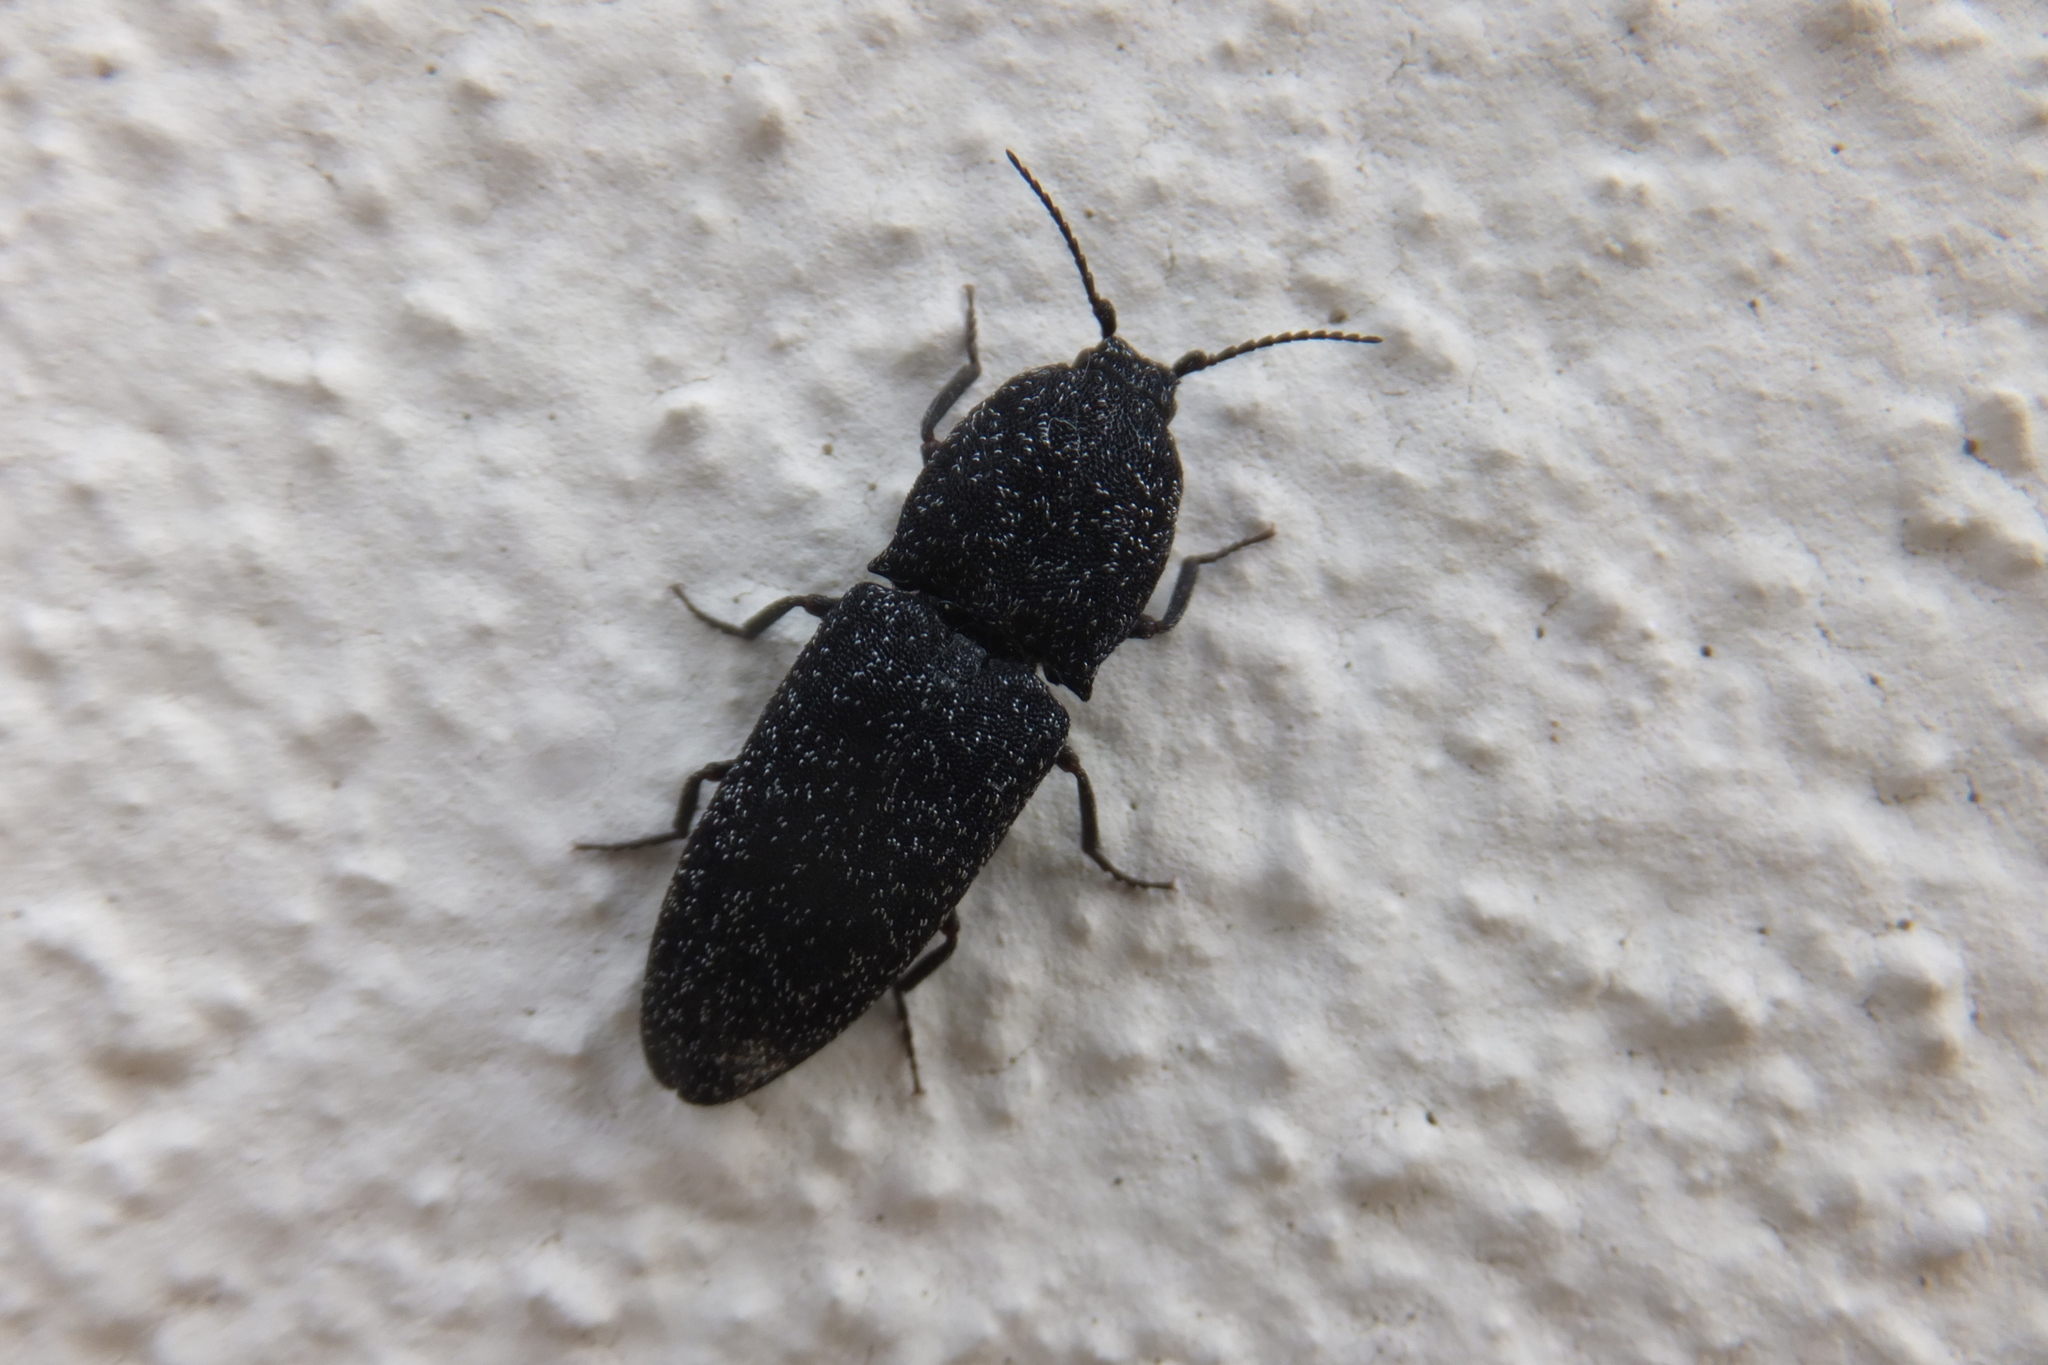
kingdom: Animalia
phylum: Arthropoda
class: Insecta
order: Coleoptera
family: Elateridae
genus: Lacon
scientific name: Lacon punctatus
